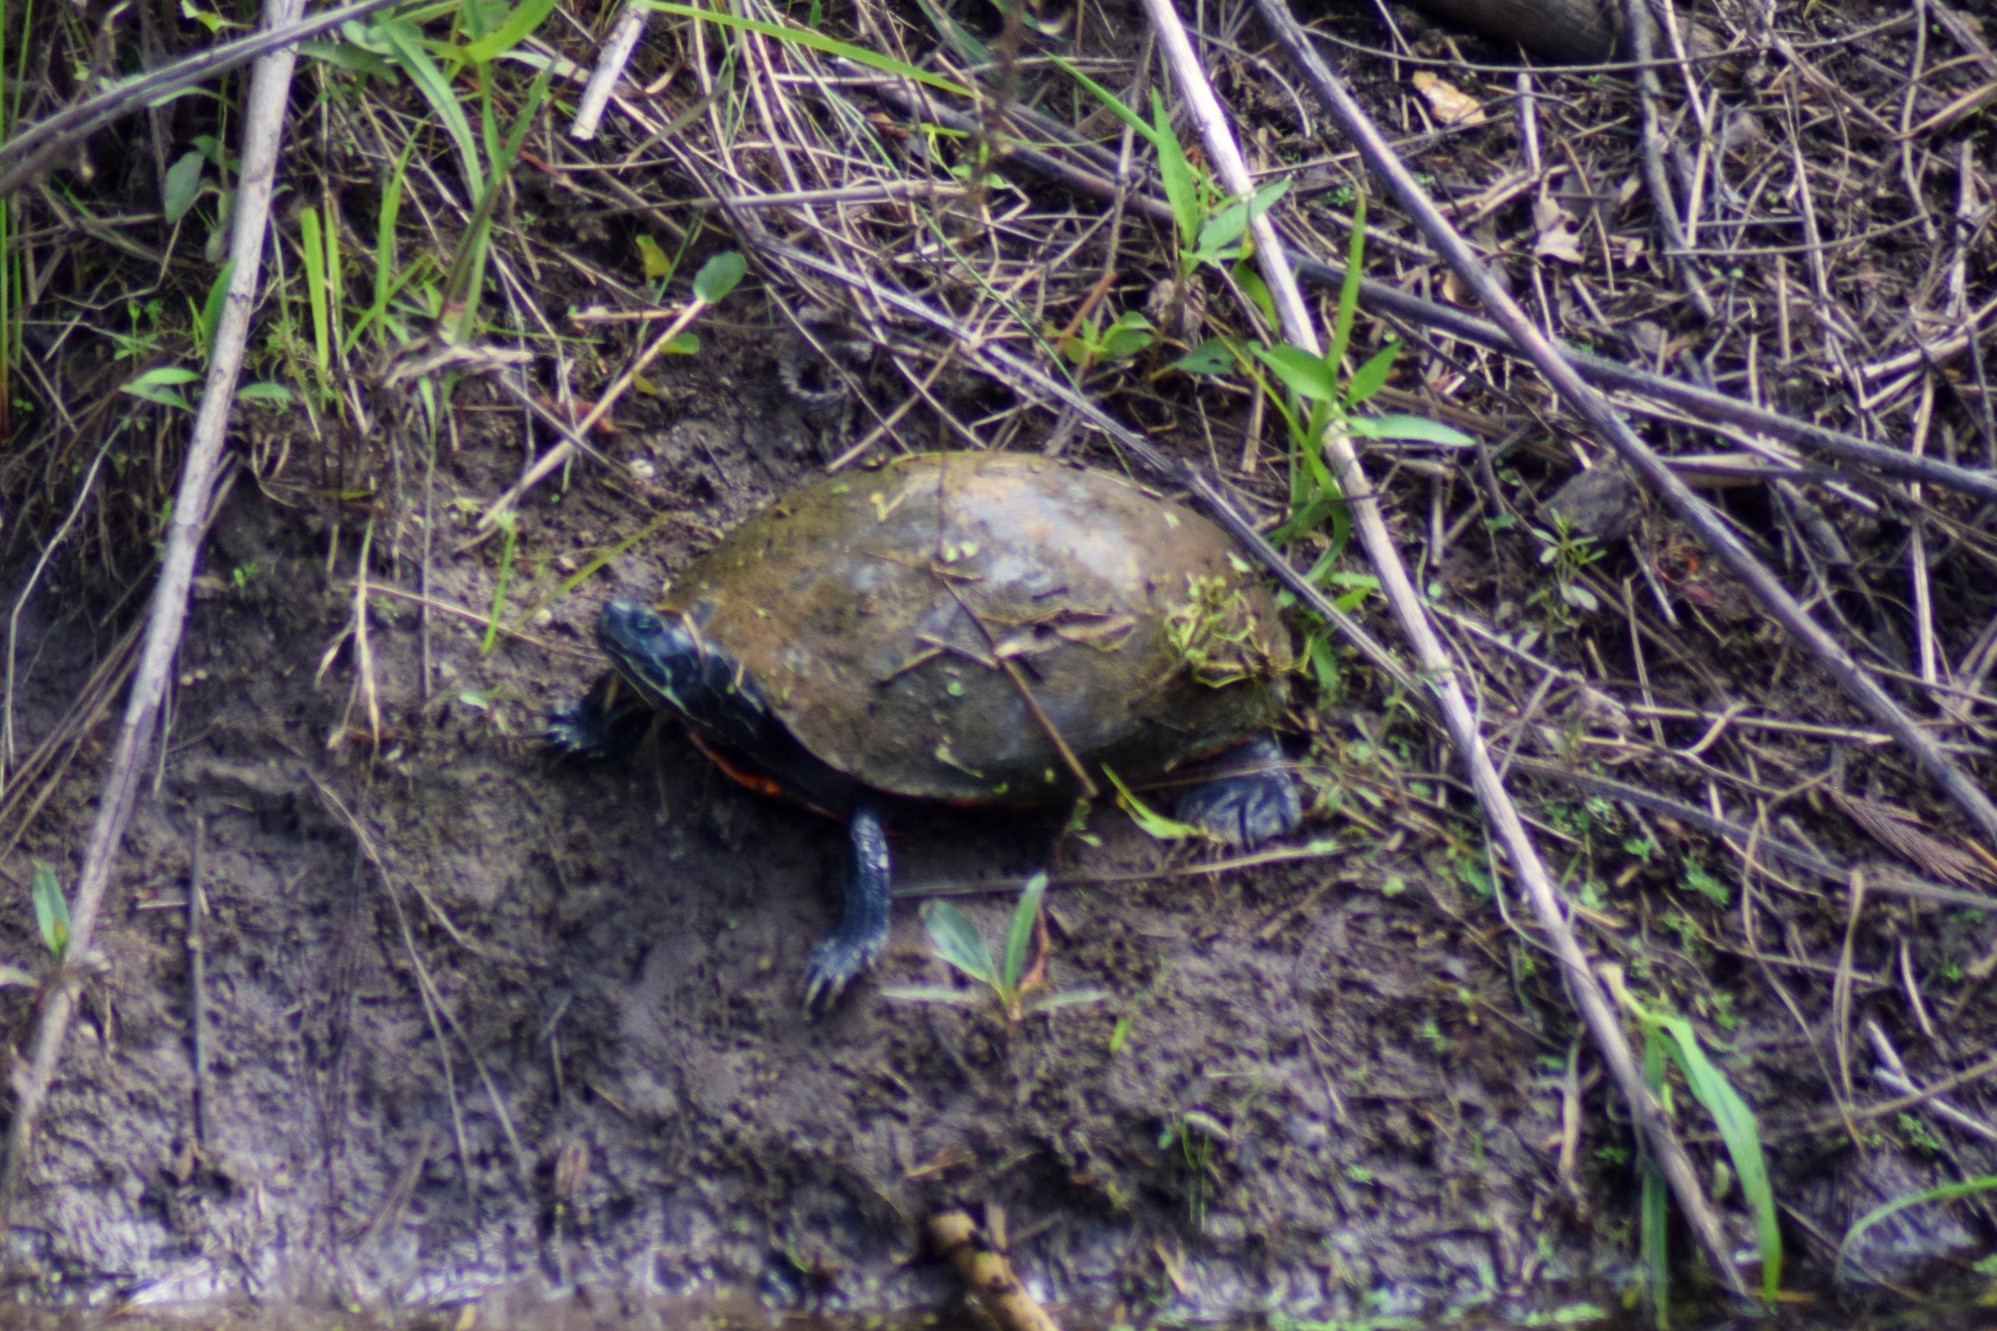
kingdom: Animalia
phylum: Chordata
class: Testudines
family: Emydidae
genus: Pseudemys
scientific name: Pseudemys rubriventris
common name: American red-bellied turtle
